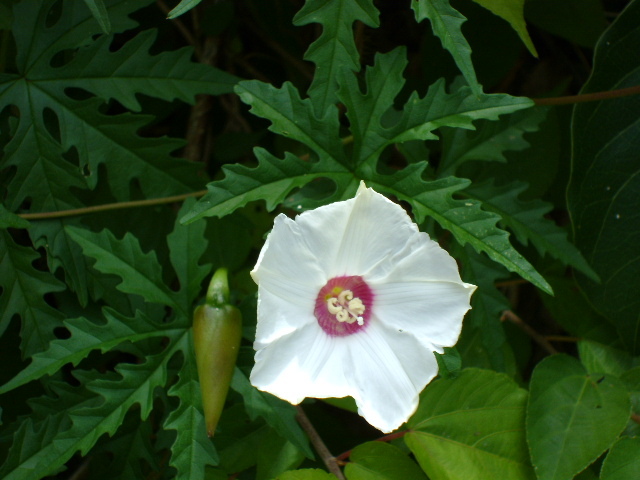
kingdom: Plantae
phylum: Tracheophyta
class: Magnoliopsida
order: Solanales
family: Convolvulaceae
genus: Distimake
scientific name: Distimake dissectus
